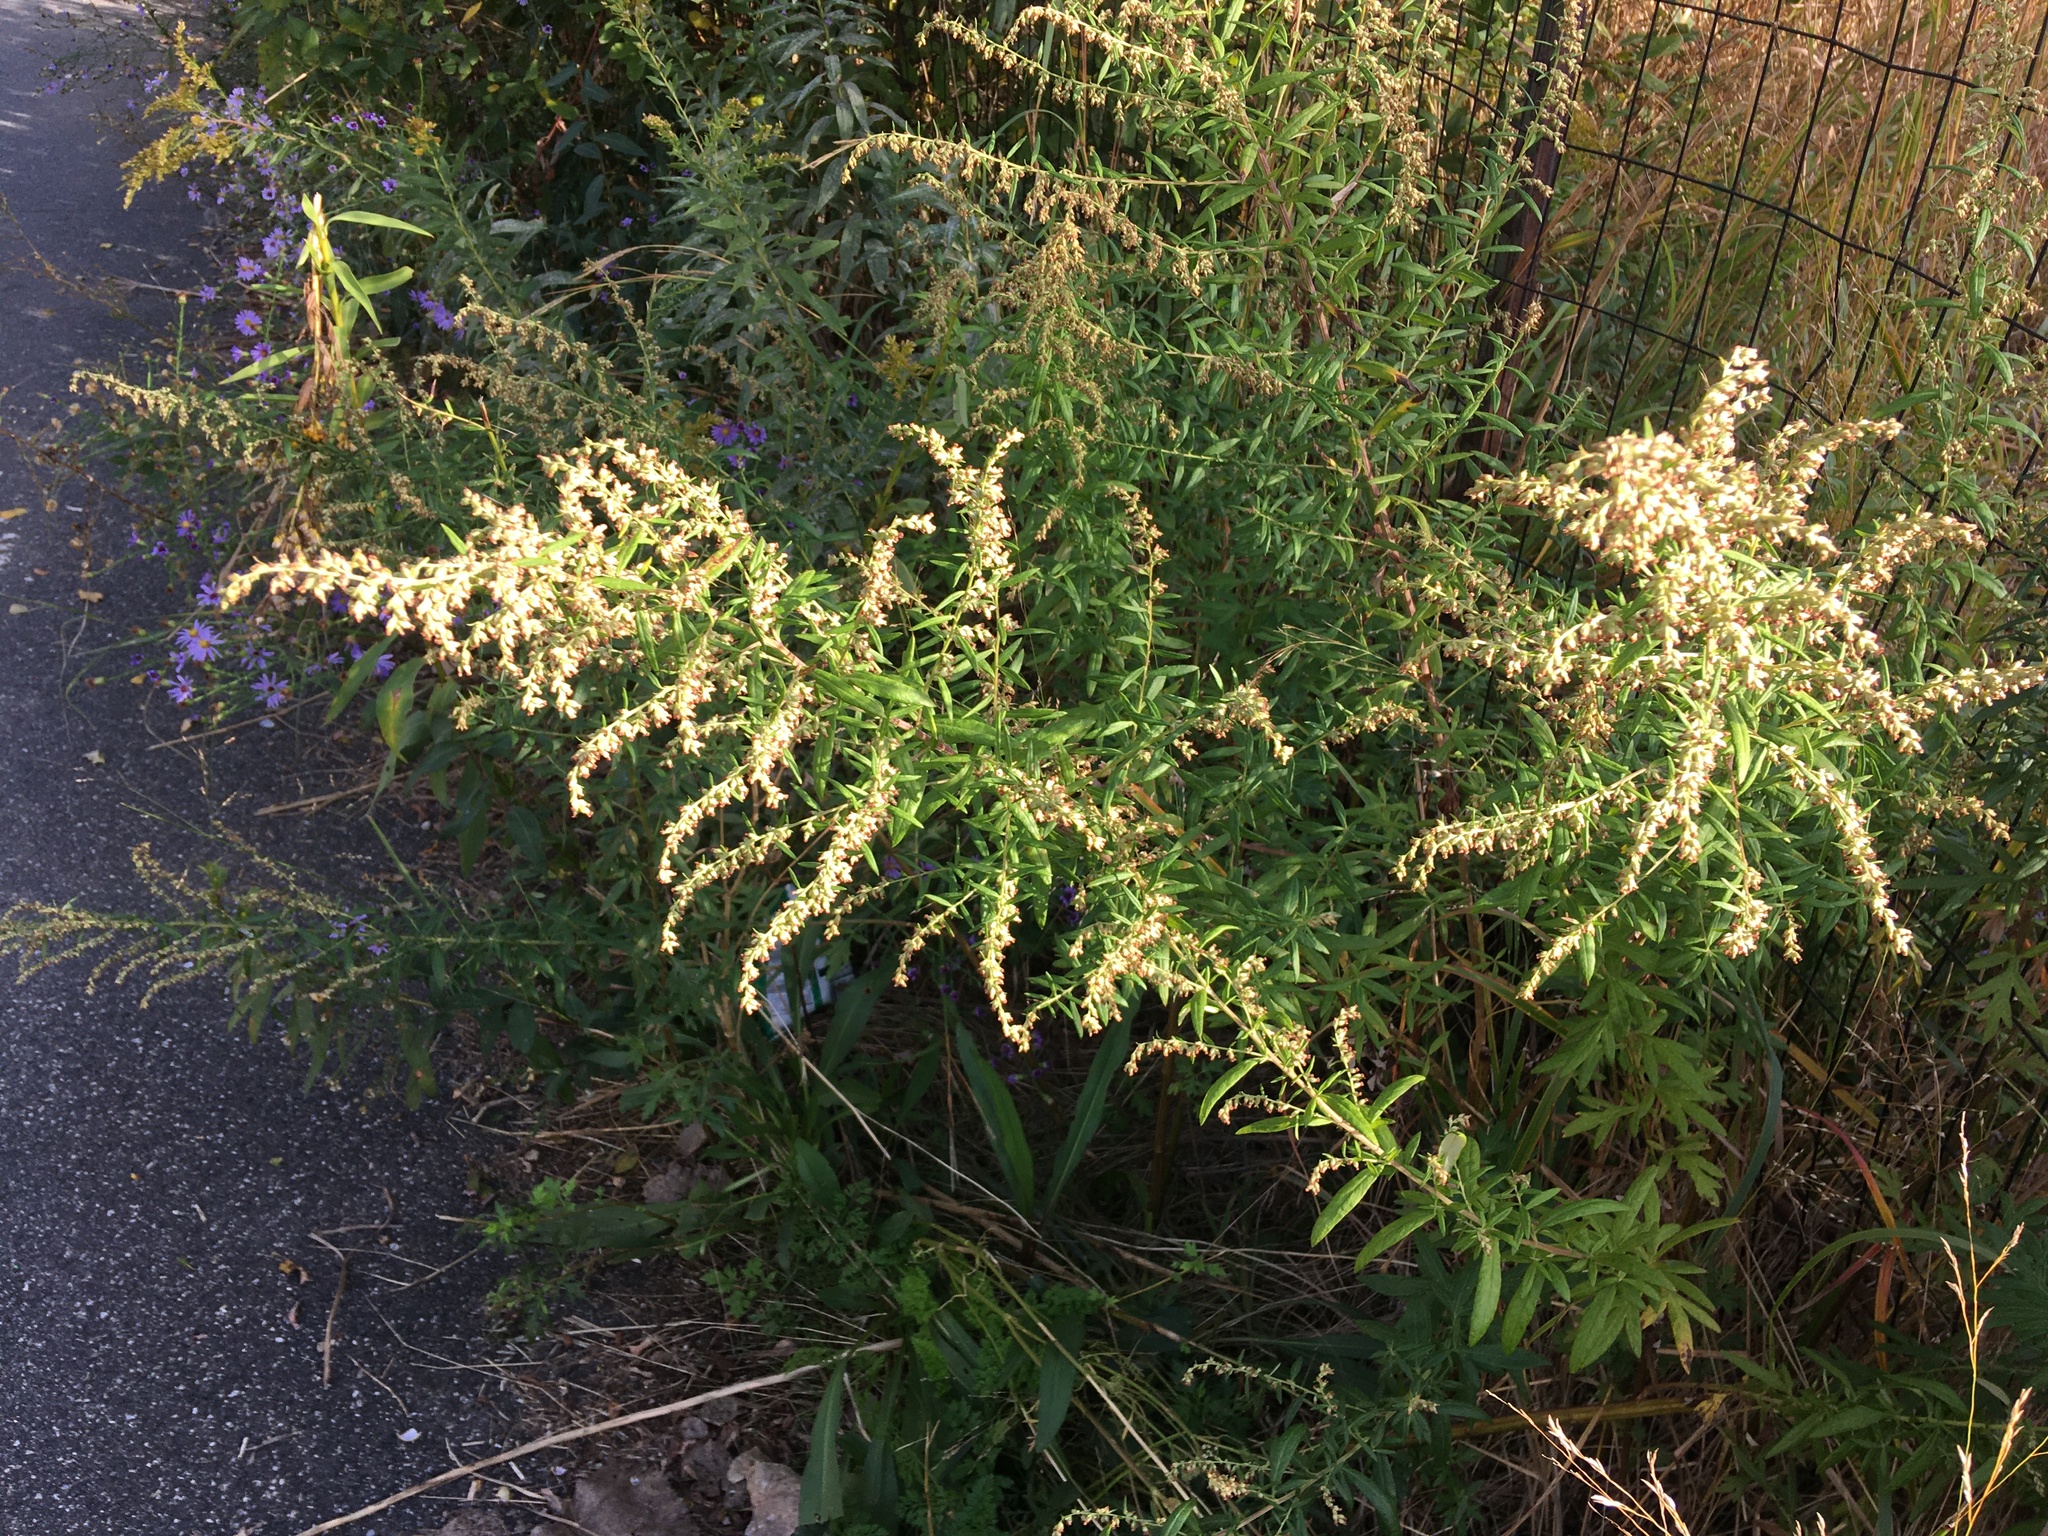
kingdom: Plantae
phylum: Tracheophyta
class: Magnoliopsida
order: Asterales
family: Asteraceae
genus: Artemisia
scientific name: Artemisia vulgaris
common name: Mugwort
